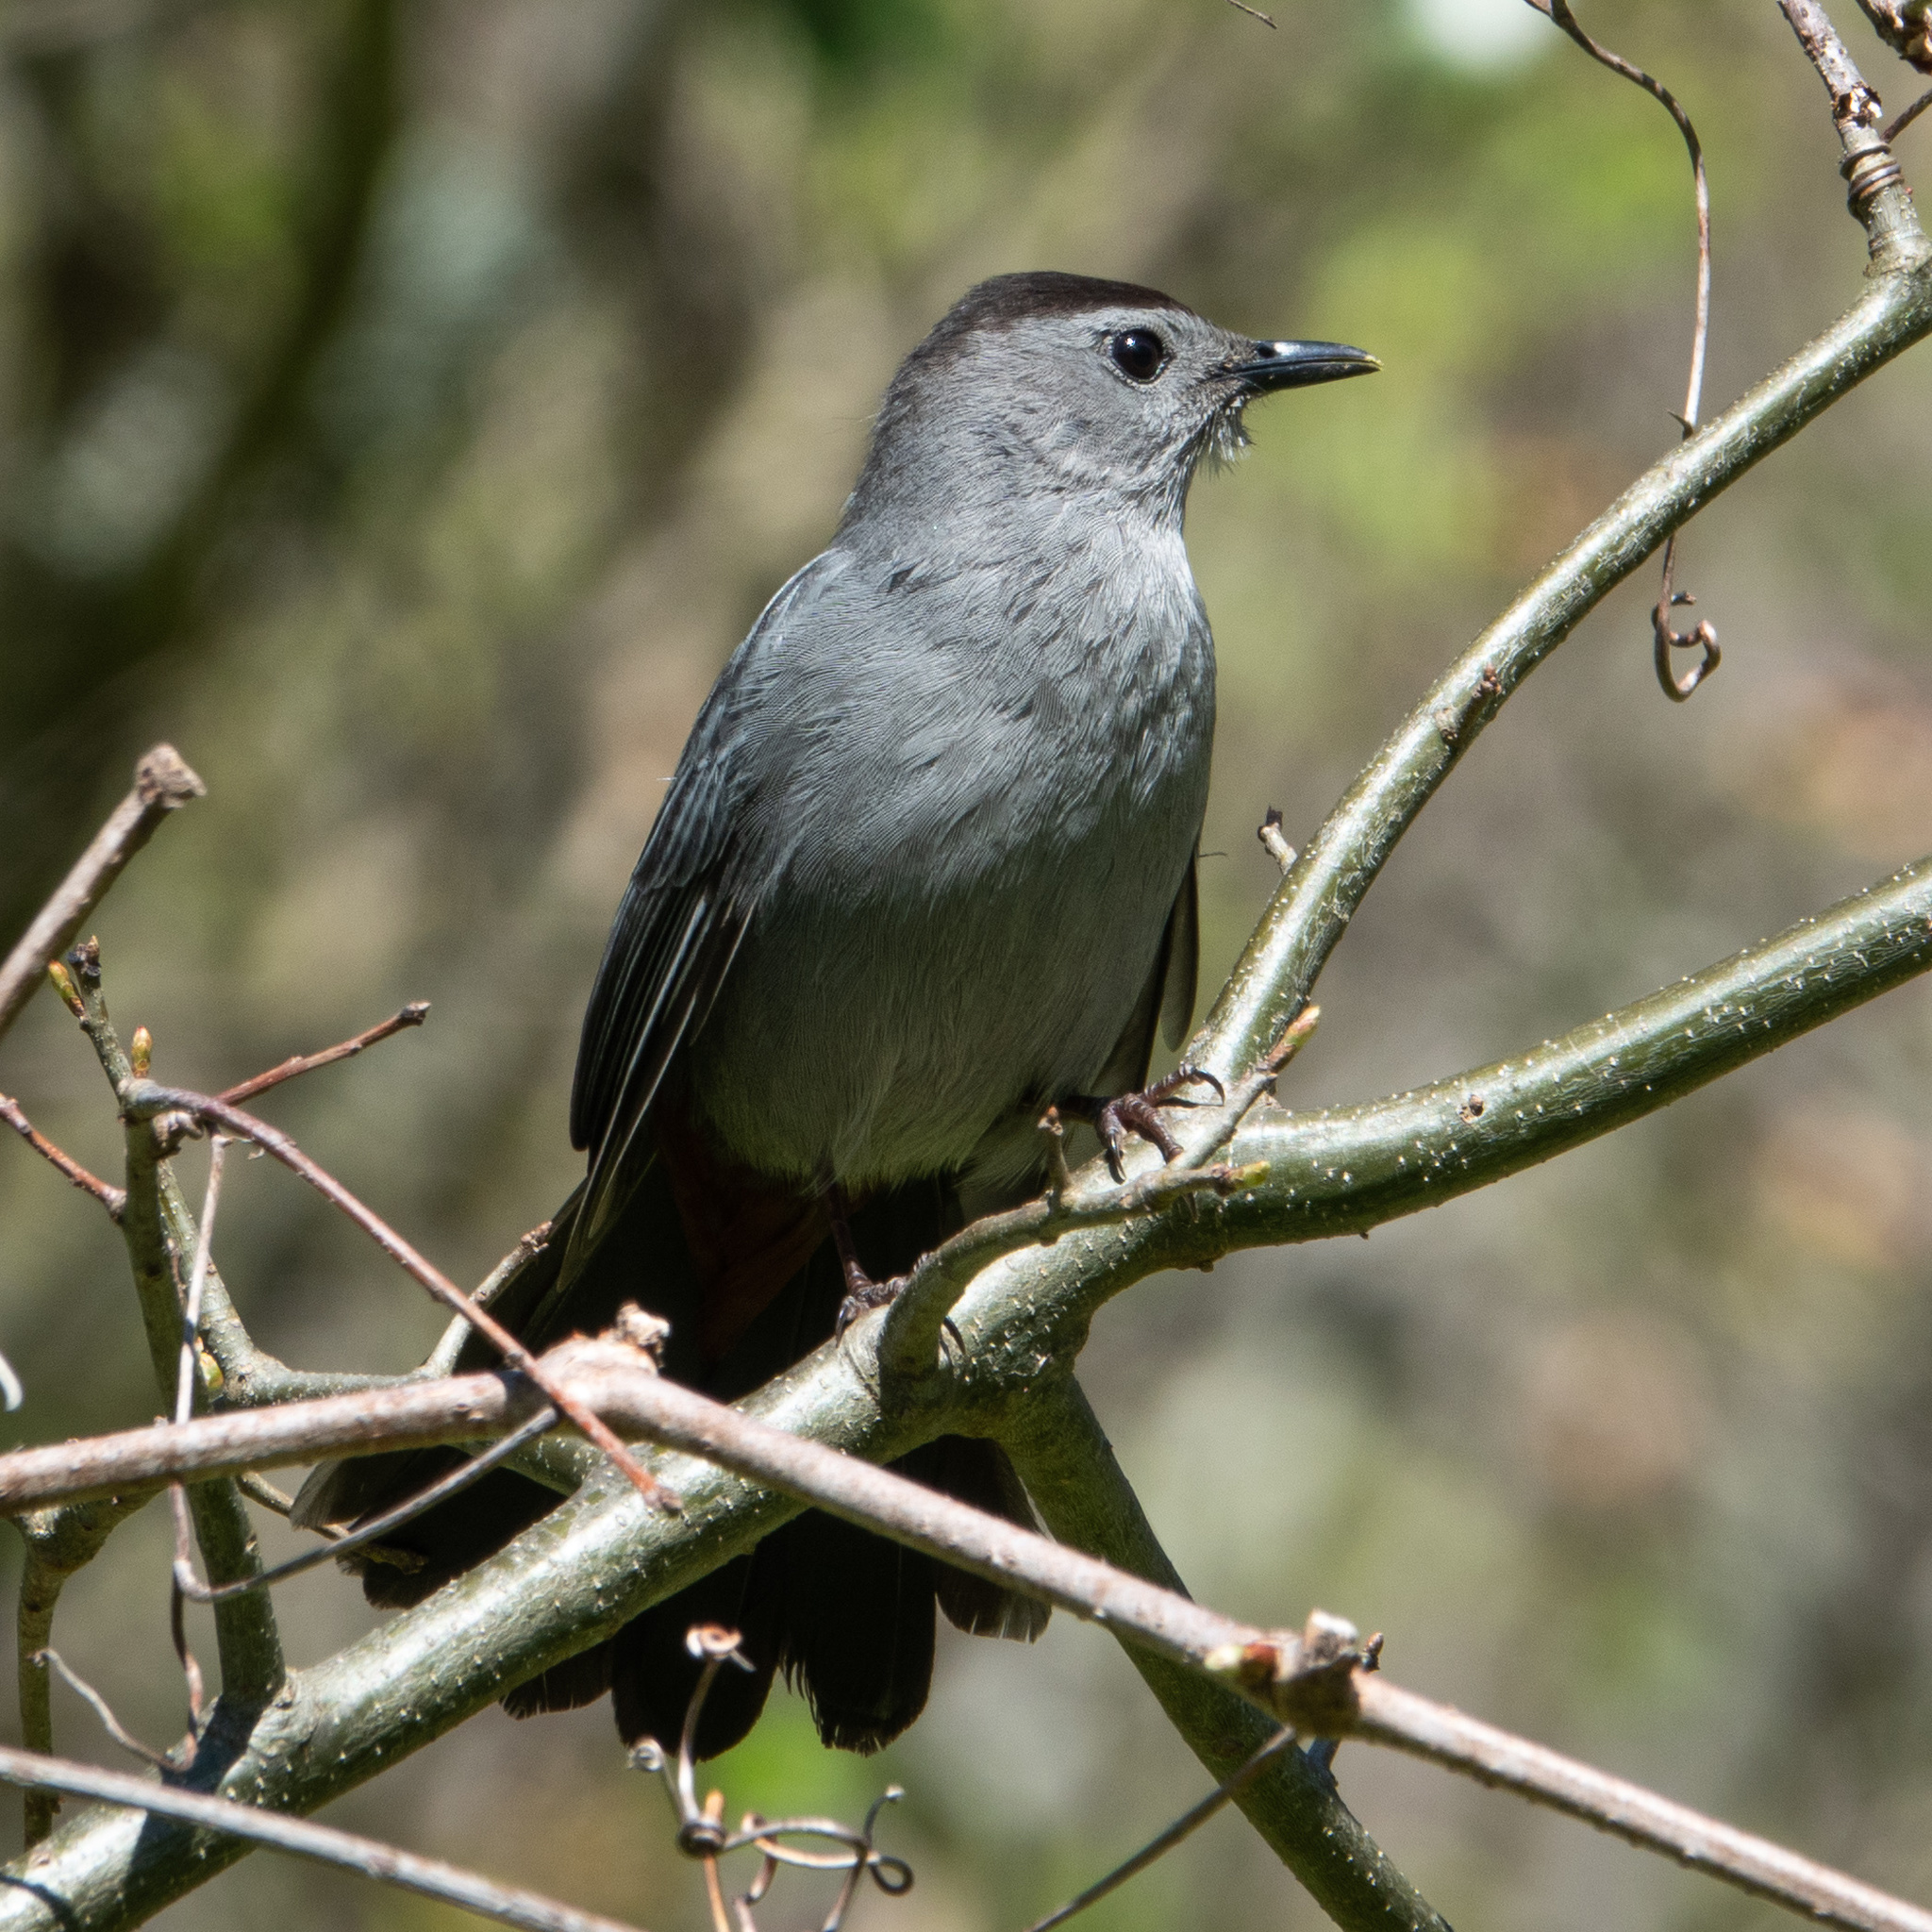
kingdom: Animalia
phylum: Chordata
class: Aves
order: Passeriformes
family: Mimidae
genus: Dumetella
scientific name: Dumetella carolinensis
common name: Gray catbird
